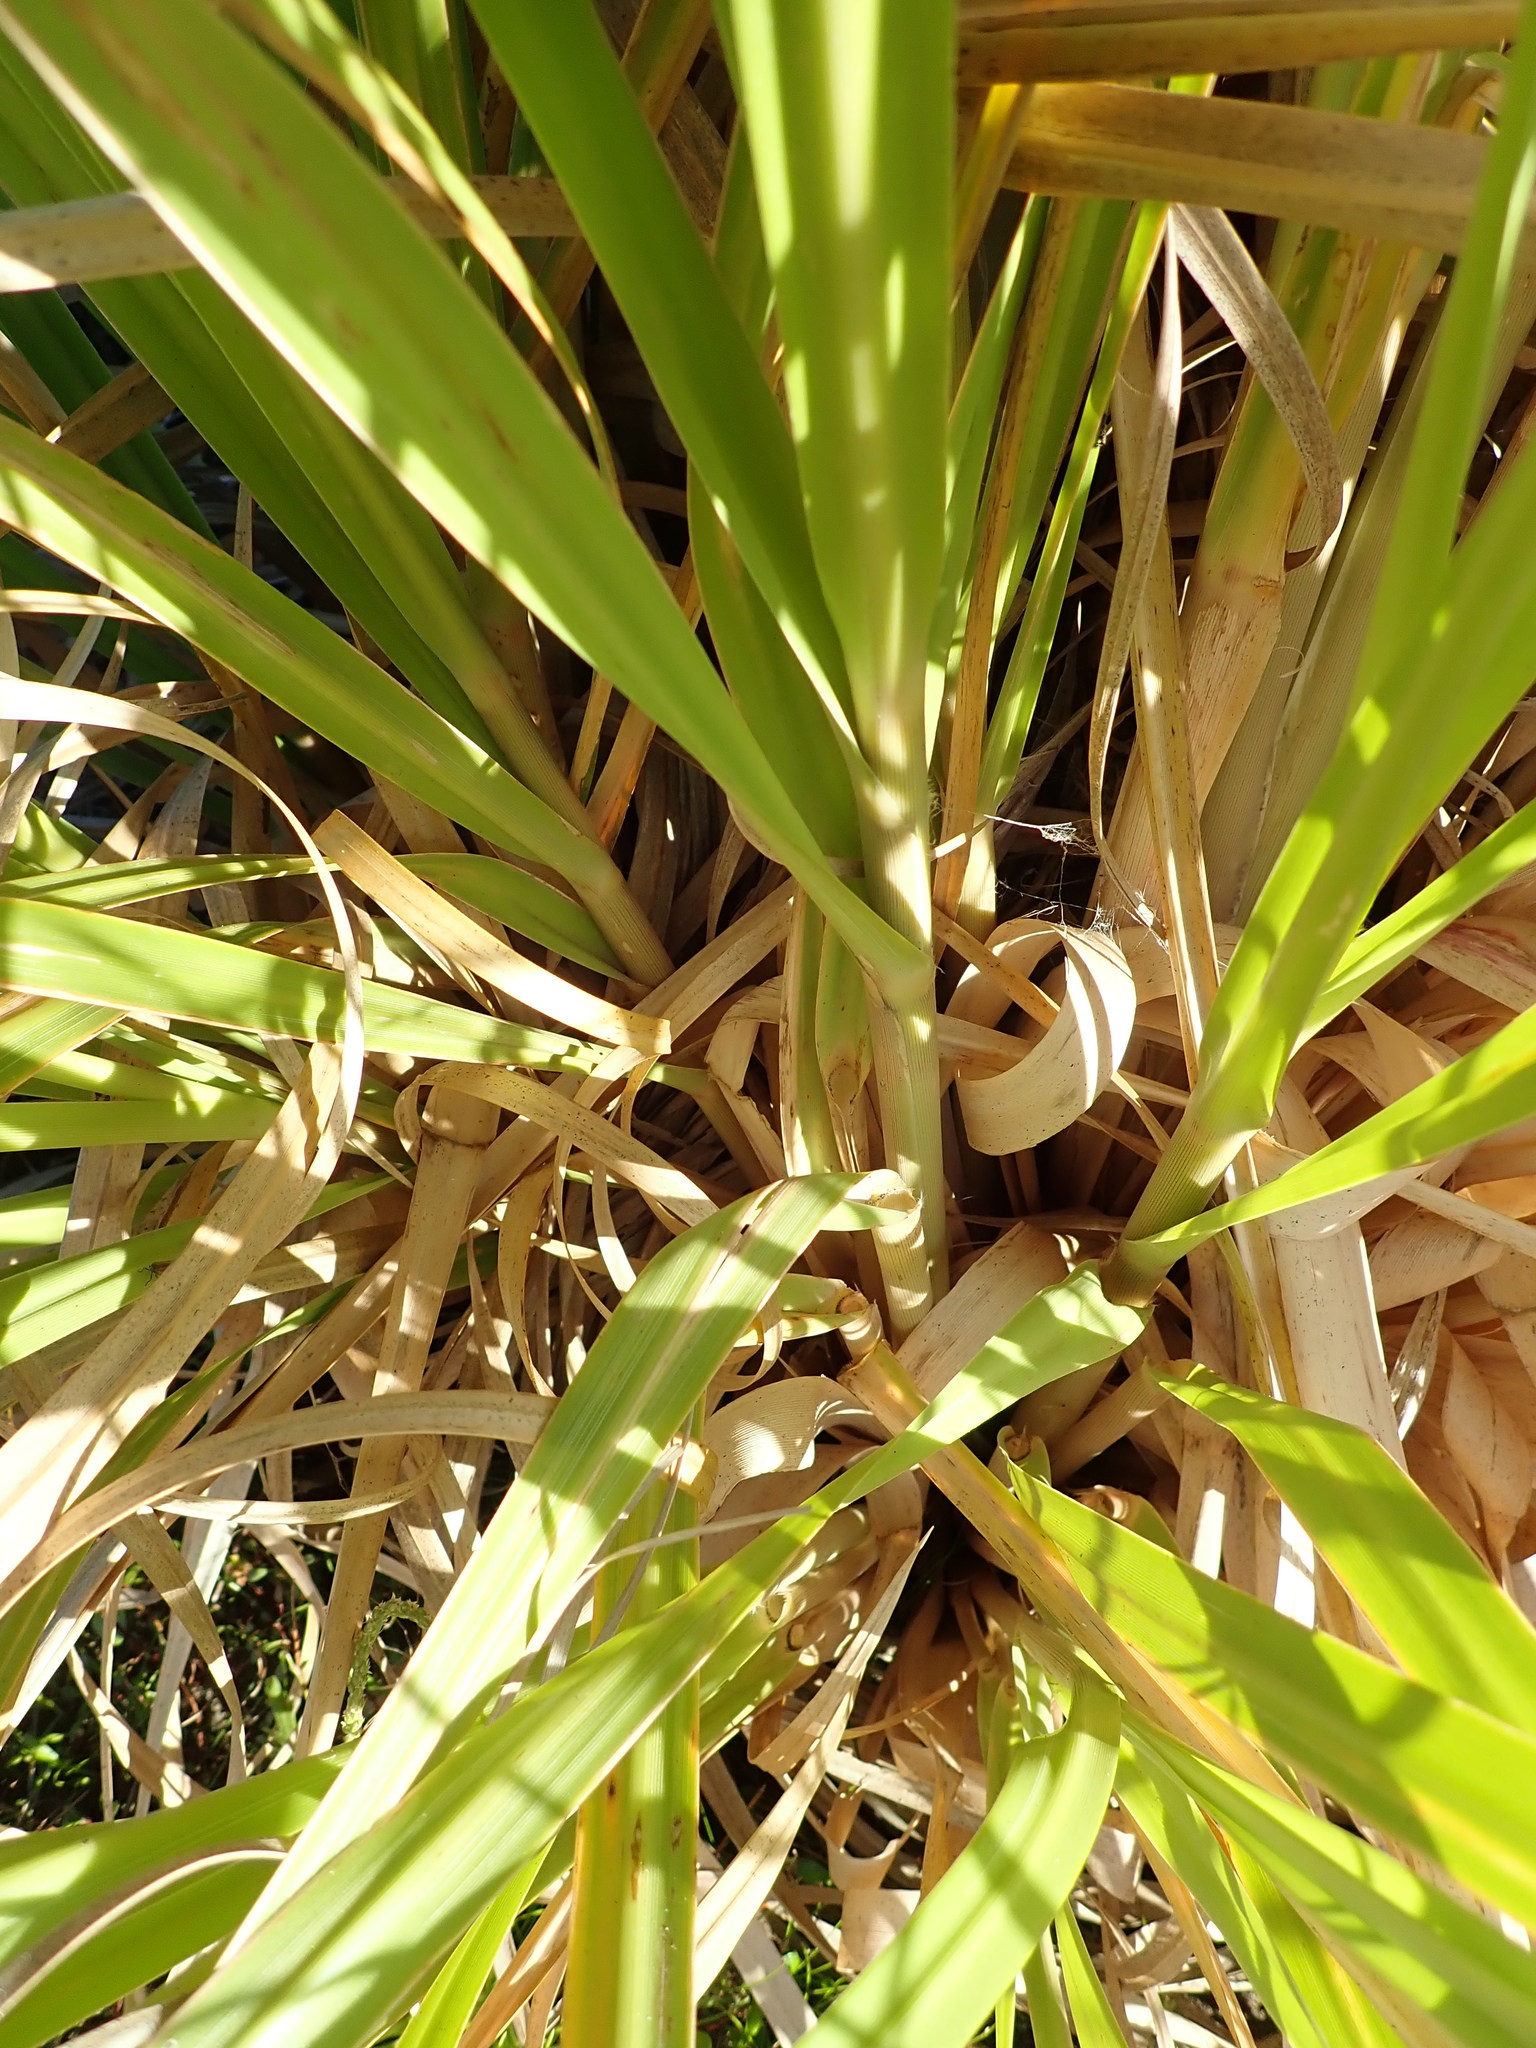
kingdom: Plantae
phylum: Tracheophyta
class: Liliopsida
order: Poales
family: Poaceae
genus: Cortaderia
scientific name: Cortaderia selloana
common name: Uruguayan pampas grass
